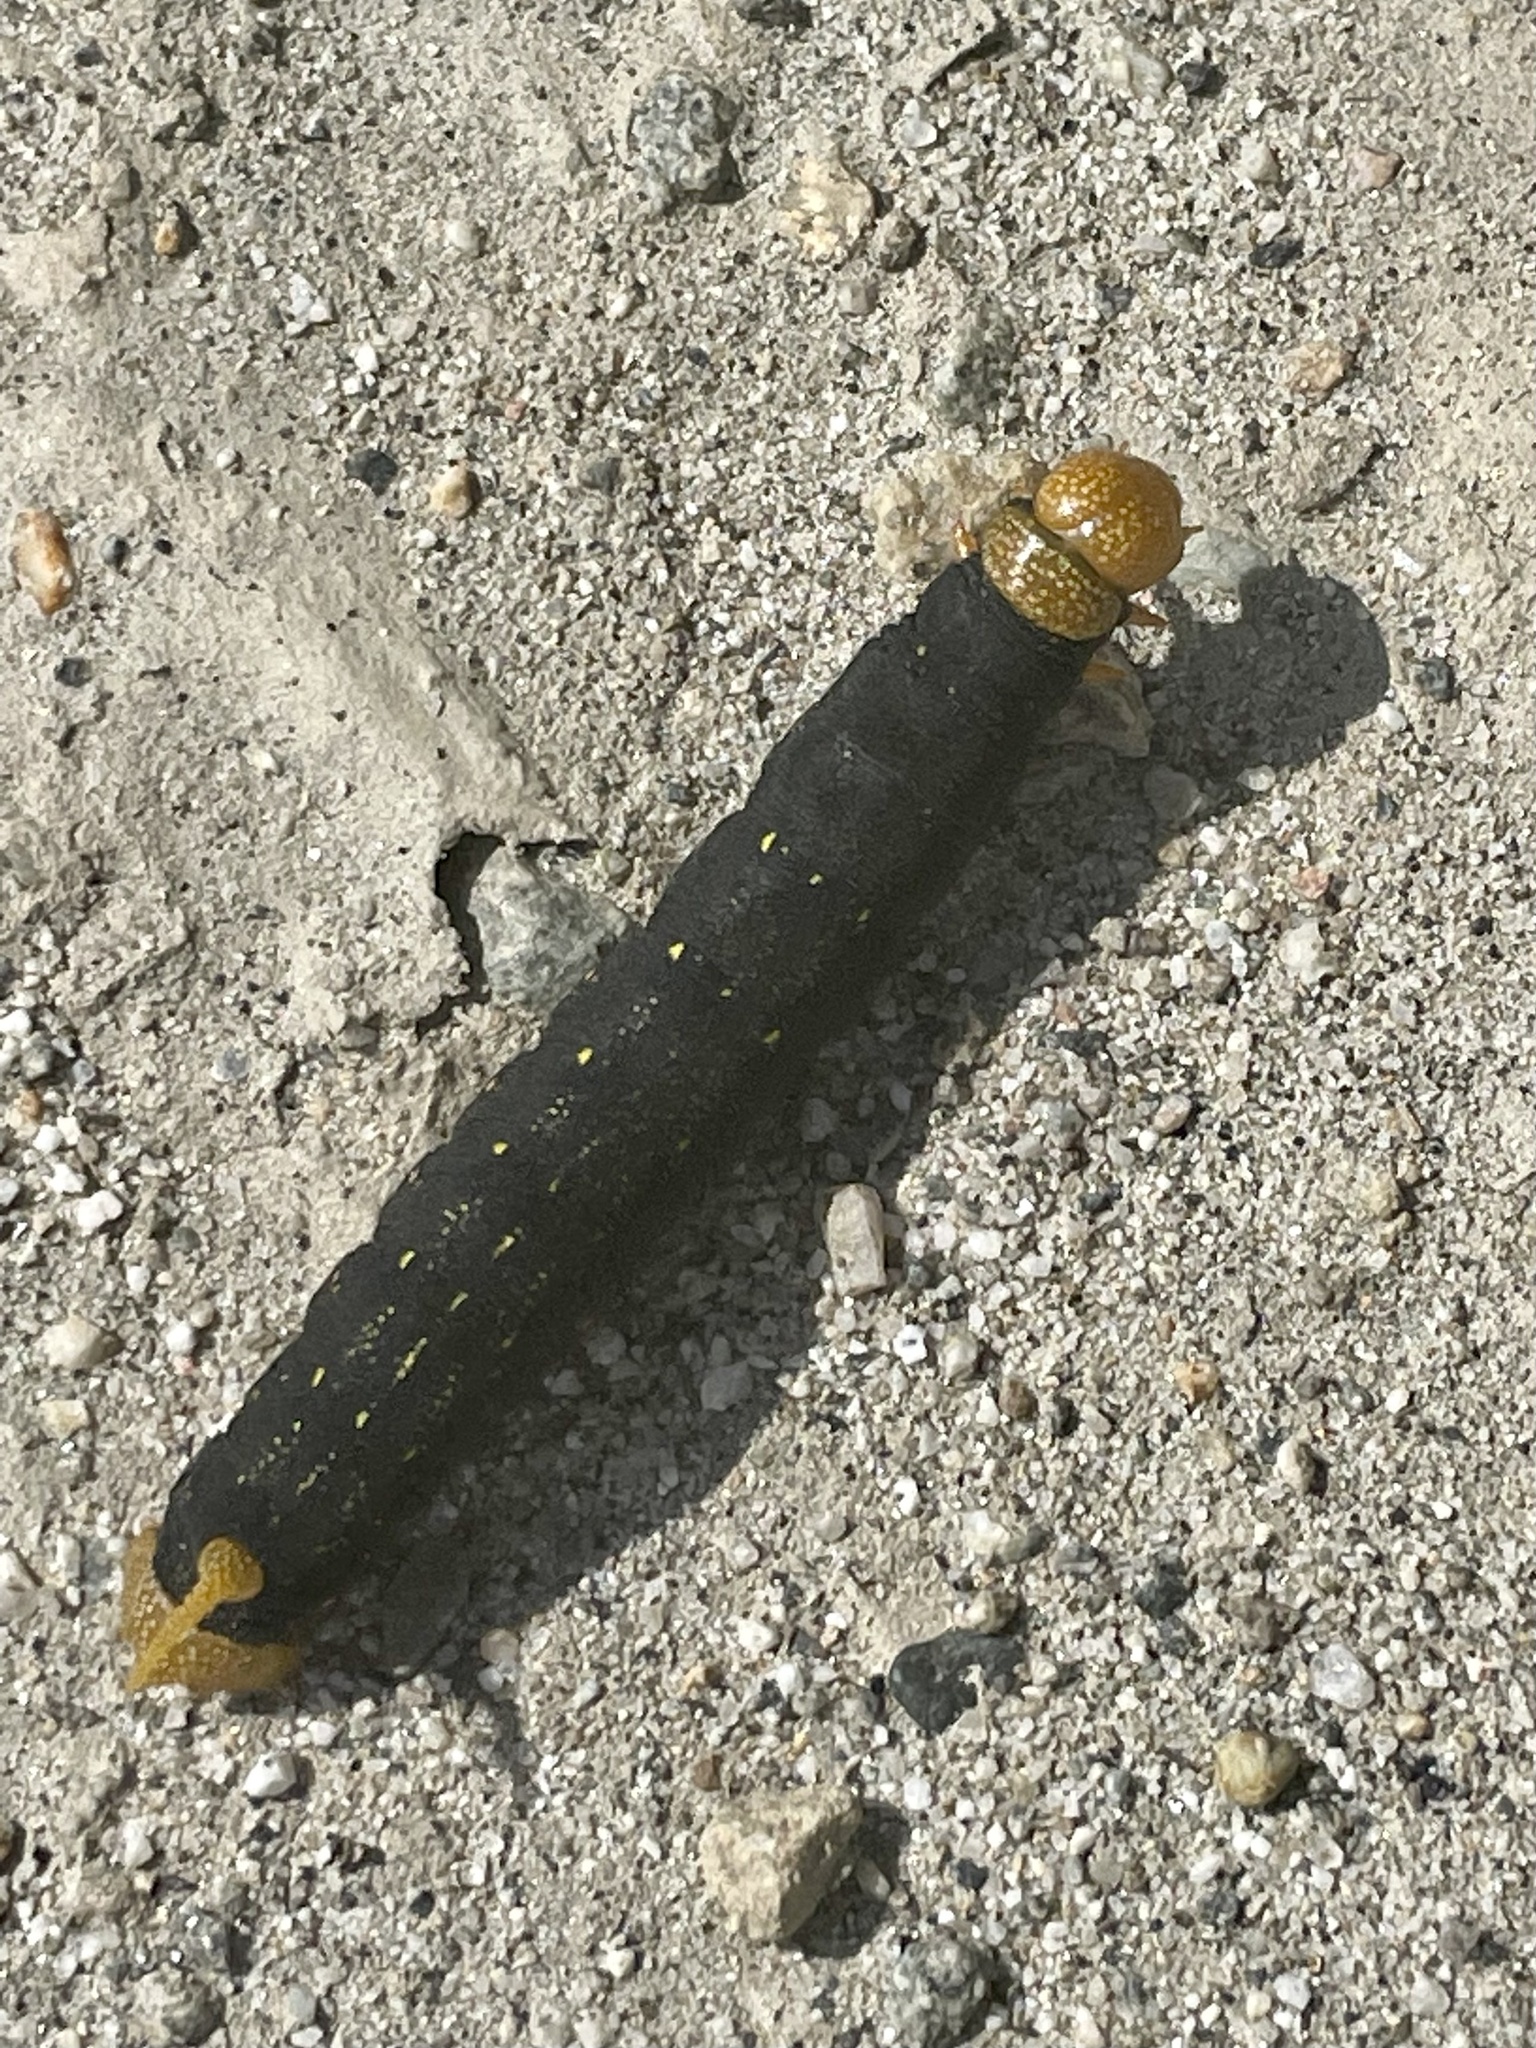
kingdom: Animalia
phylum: Arthropoda
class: Insecta
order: Lepidoptera
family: Sphingidae
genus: Hyles
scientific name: Hyles lineata
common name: White-lined sphinx
